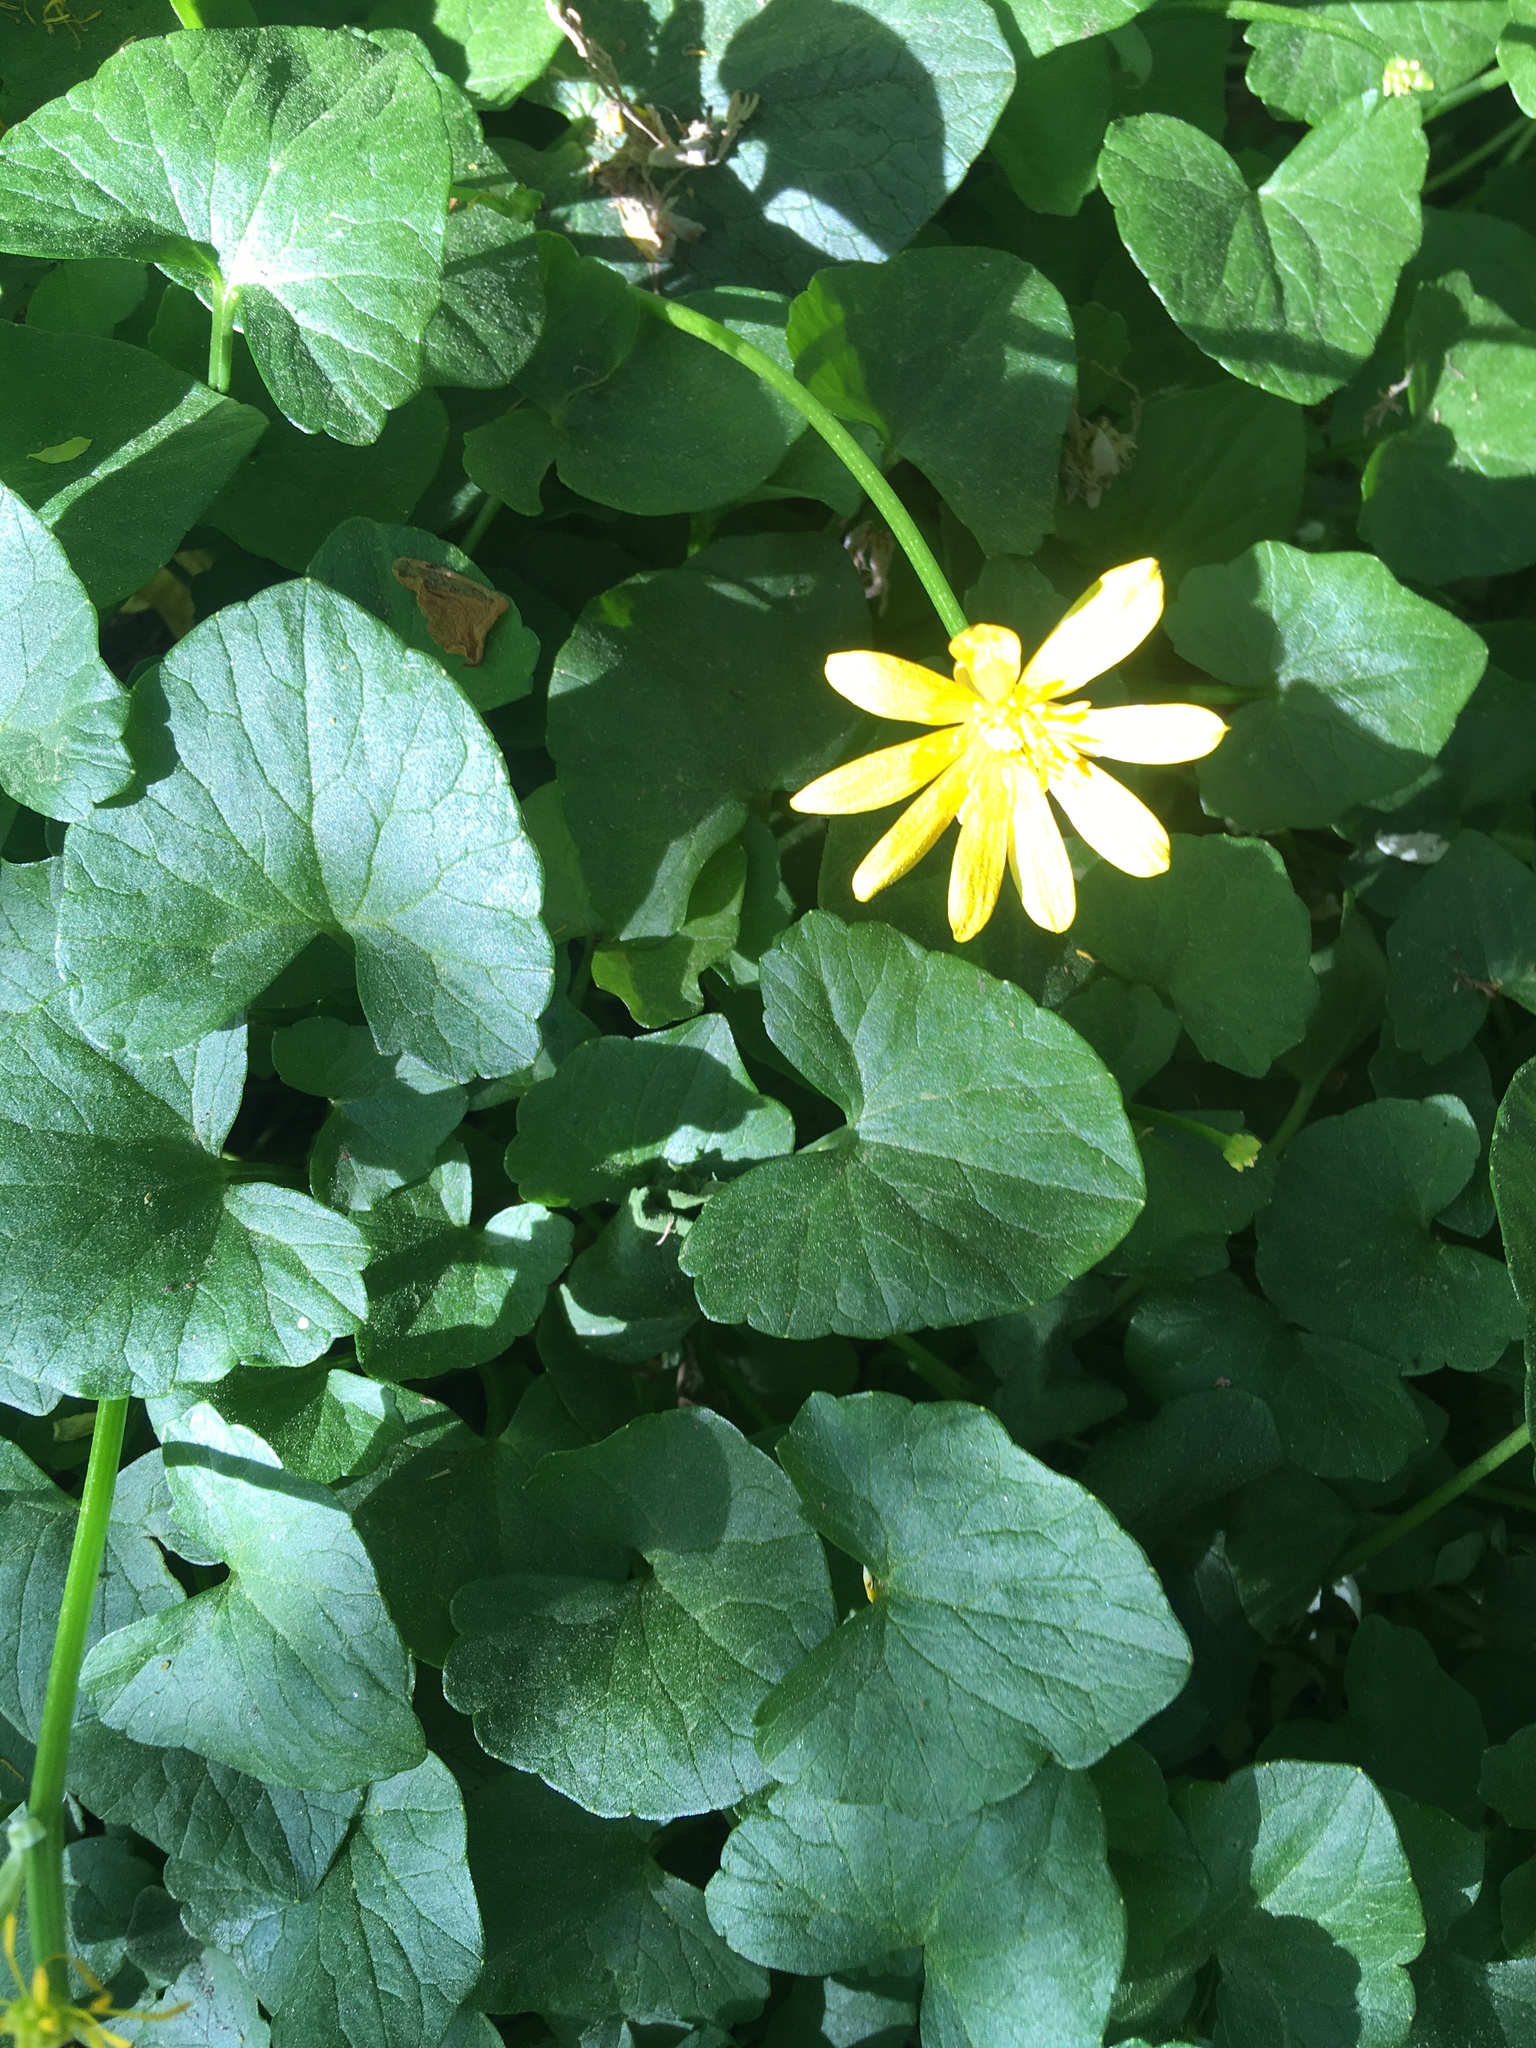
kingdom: Plantae
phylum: Tracheophyta
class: Magnoliopsida
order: Ranunculales
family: Ranunculaceae
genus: Ficaria
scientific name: Ficaria verna
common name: Lesser celandine
